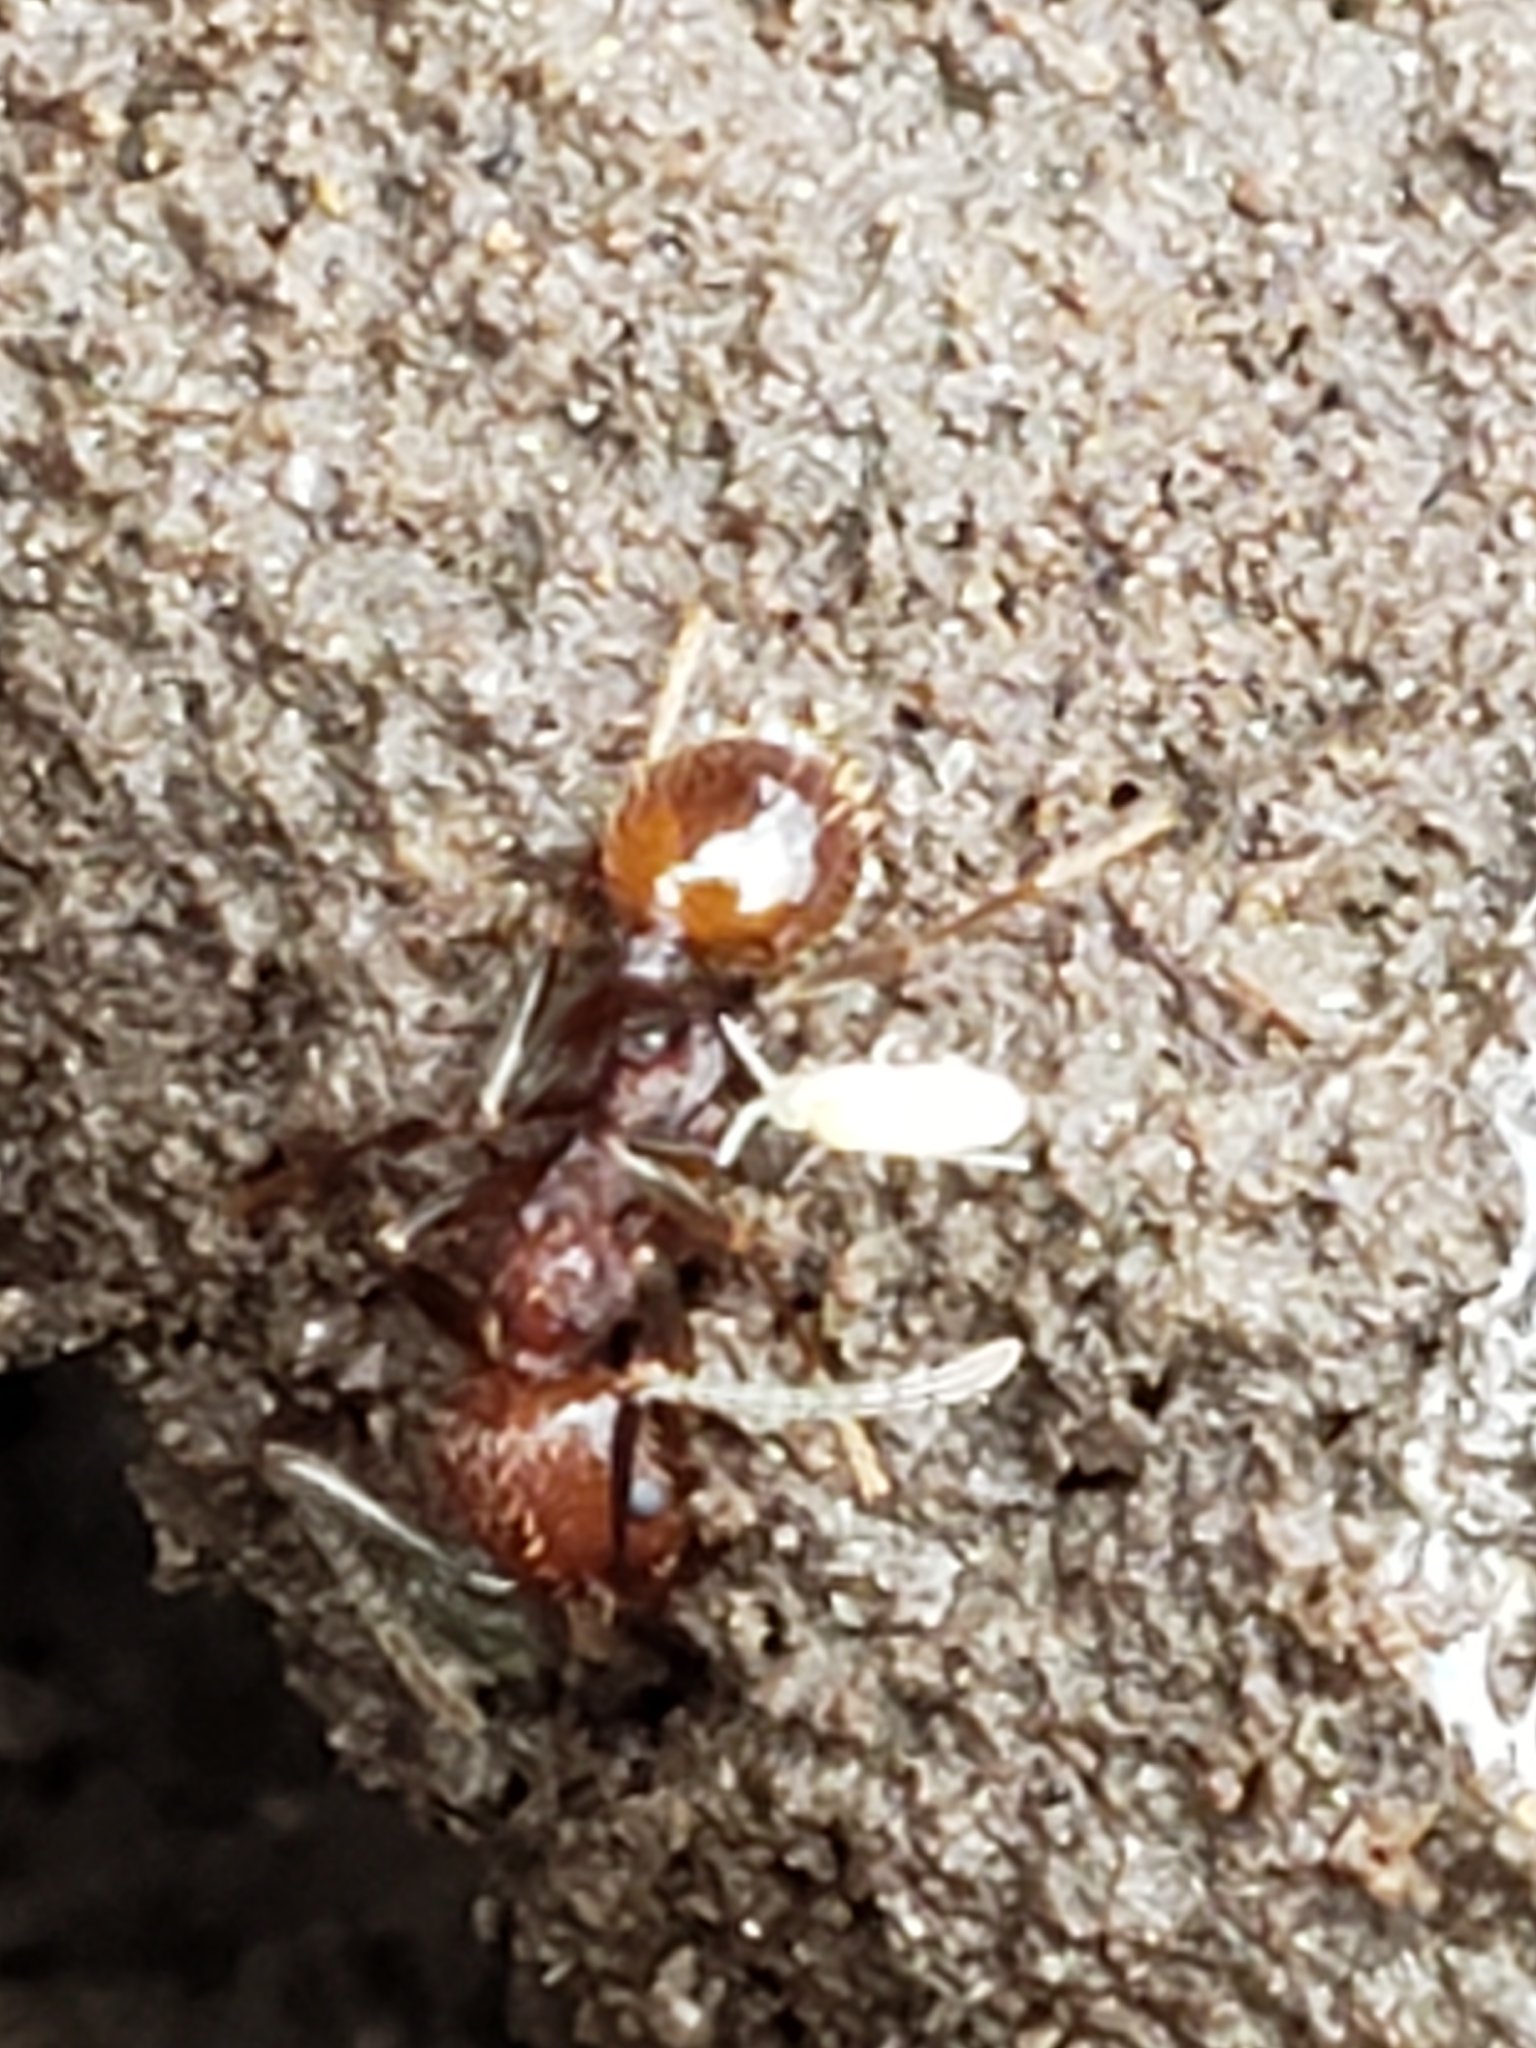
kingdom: Animalia
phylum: Arthropoda
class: Insecta
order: Hymenoptera
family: Formicidae
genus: Aphaenogaster
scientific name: Aphaenogaster fulva
